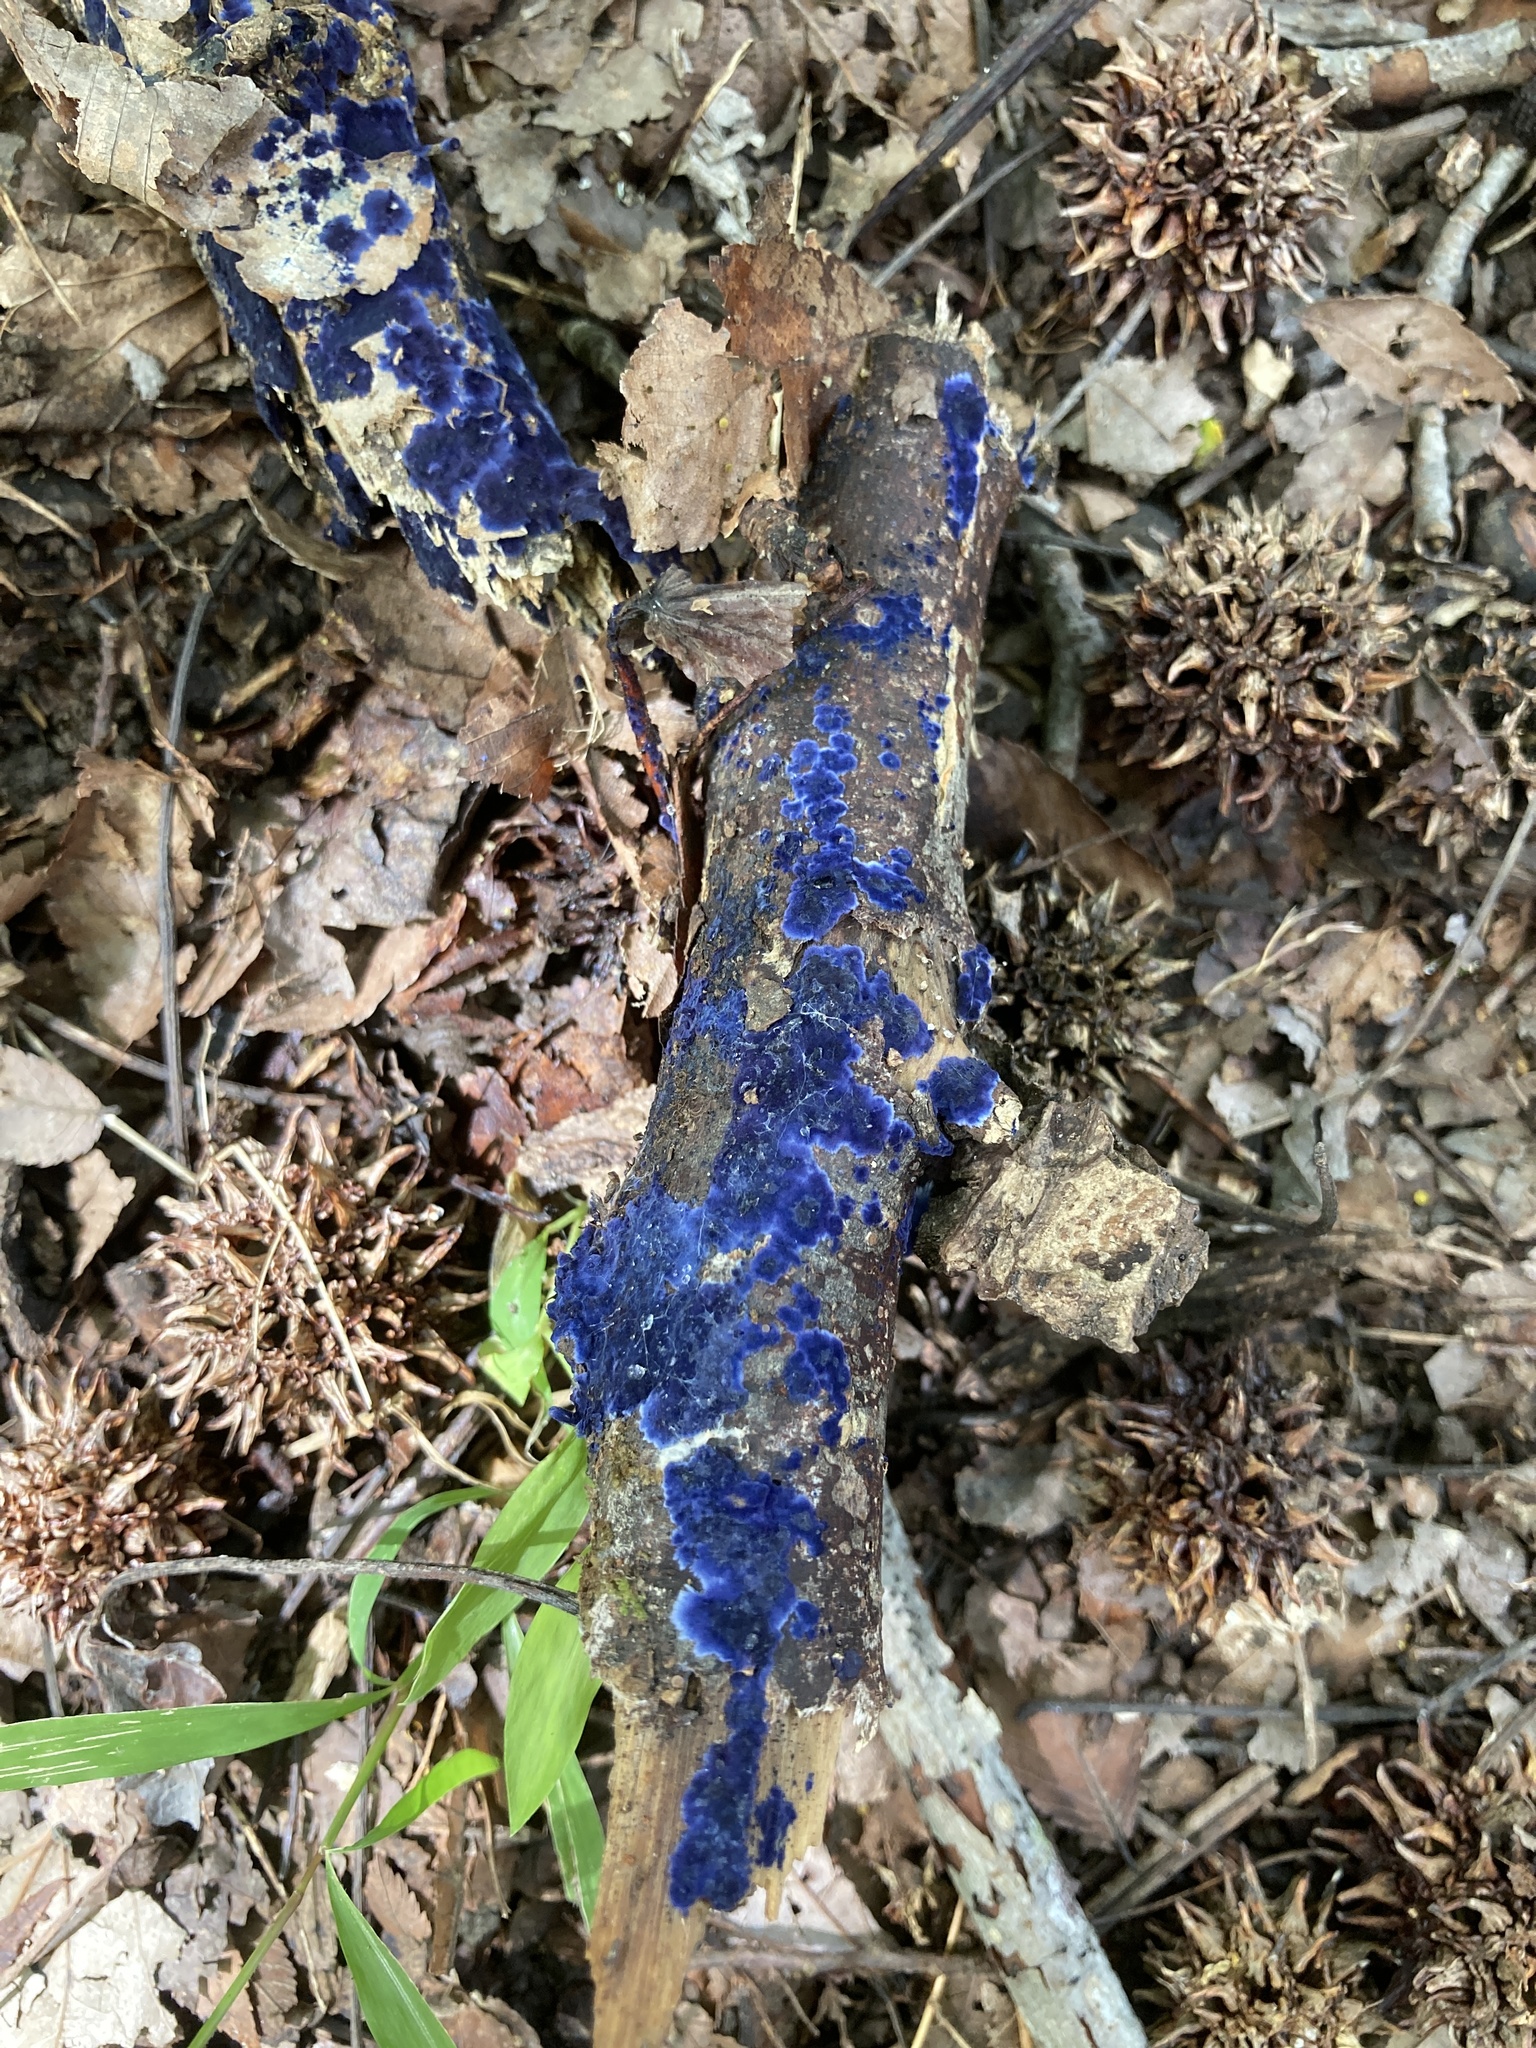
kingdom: Fungi
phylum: Basidiomycota
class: Agaricomycetes
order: Polyporales
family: Phanerochaetaceae
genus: Terana
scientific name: Terana coerulea
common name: Cobalt crust
